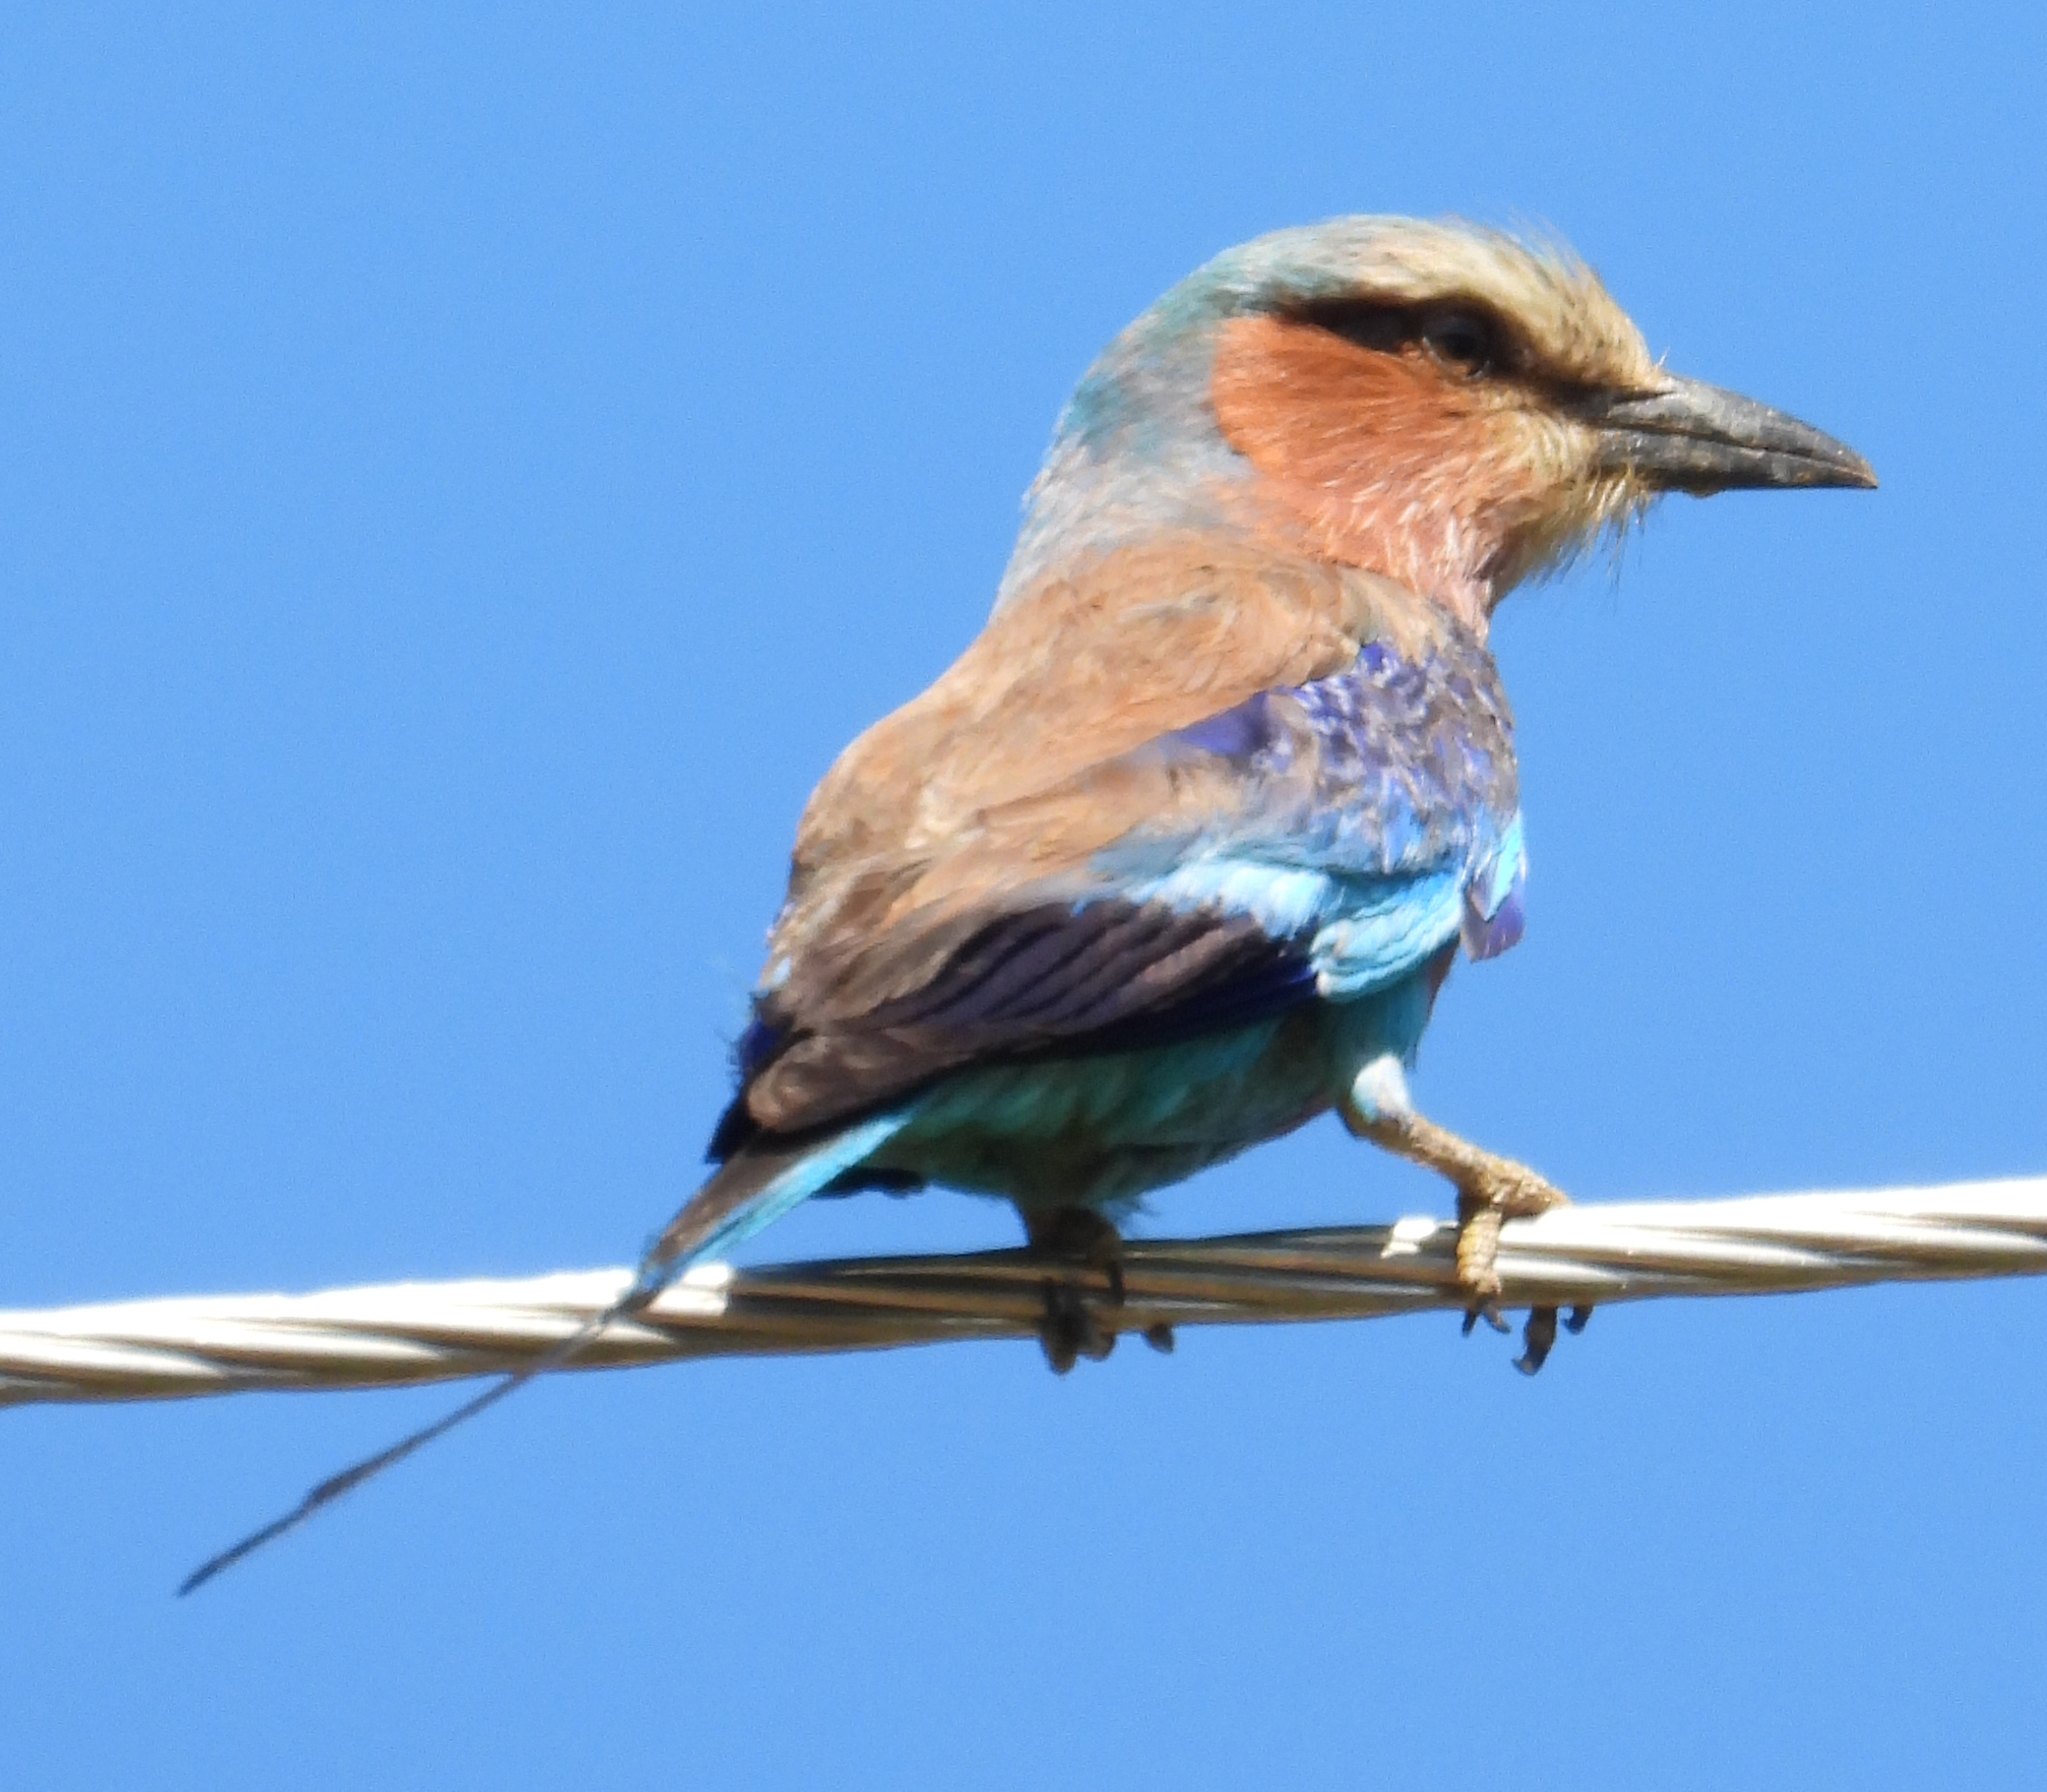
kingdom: Animalia
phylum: Chordata
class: Aves
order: Coraciiformes
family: Coraciidae
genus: Coracias
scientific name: Coracias caudatus
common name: Lilac-breasted roller
